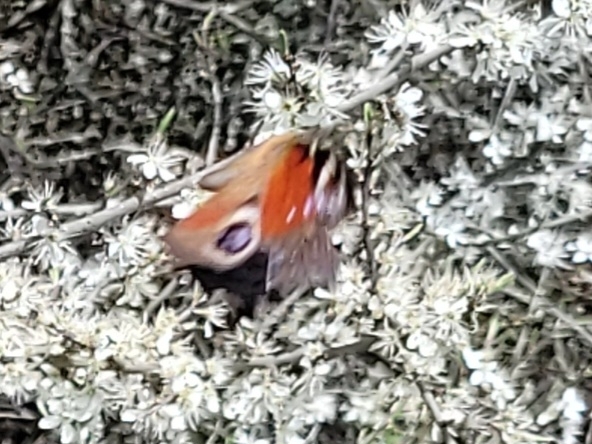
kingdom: Animalia
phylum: Arthropoda
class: Insecta
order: Lepidoptera
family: Nymphalidae
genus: Aglais
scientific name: Aglais io
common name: Peacock
